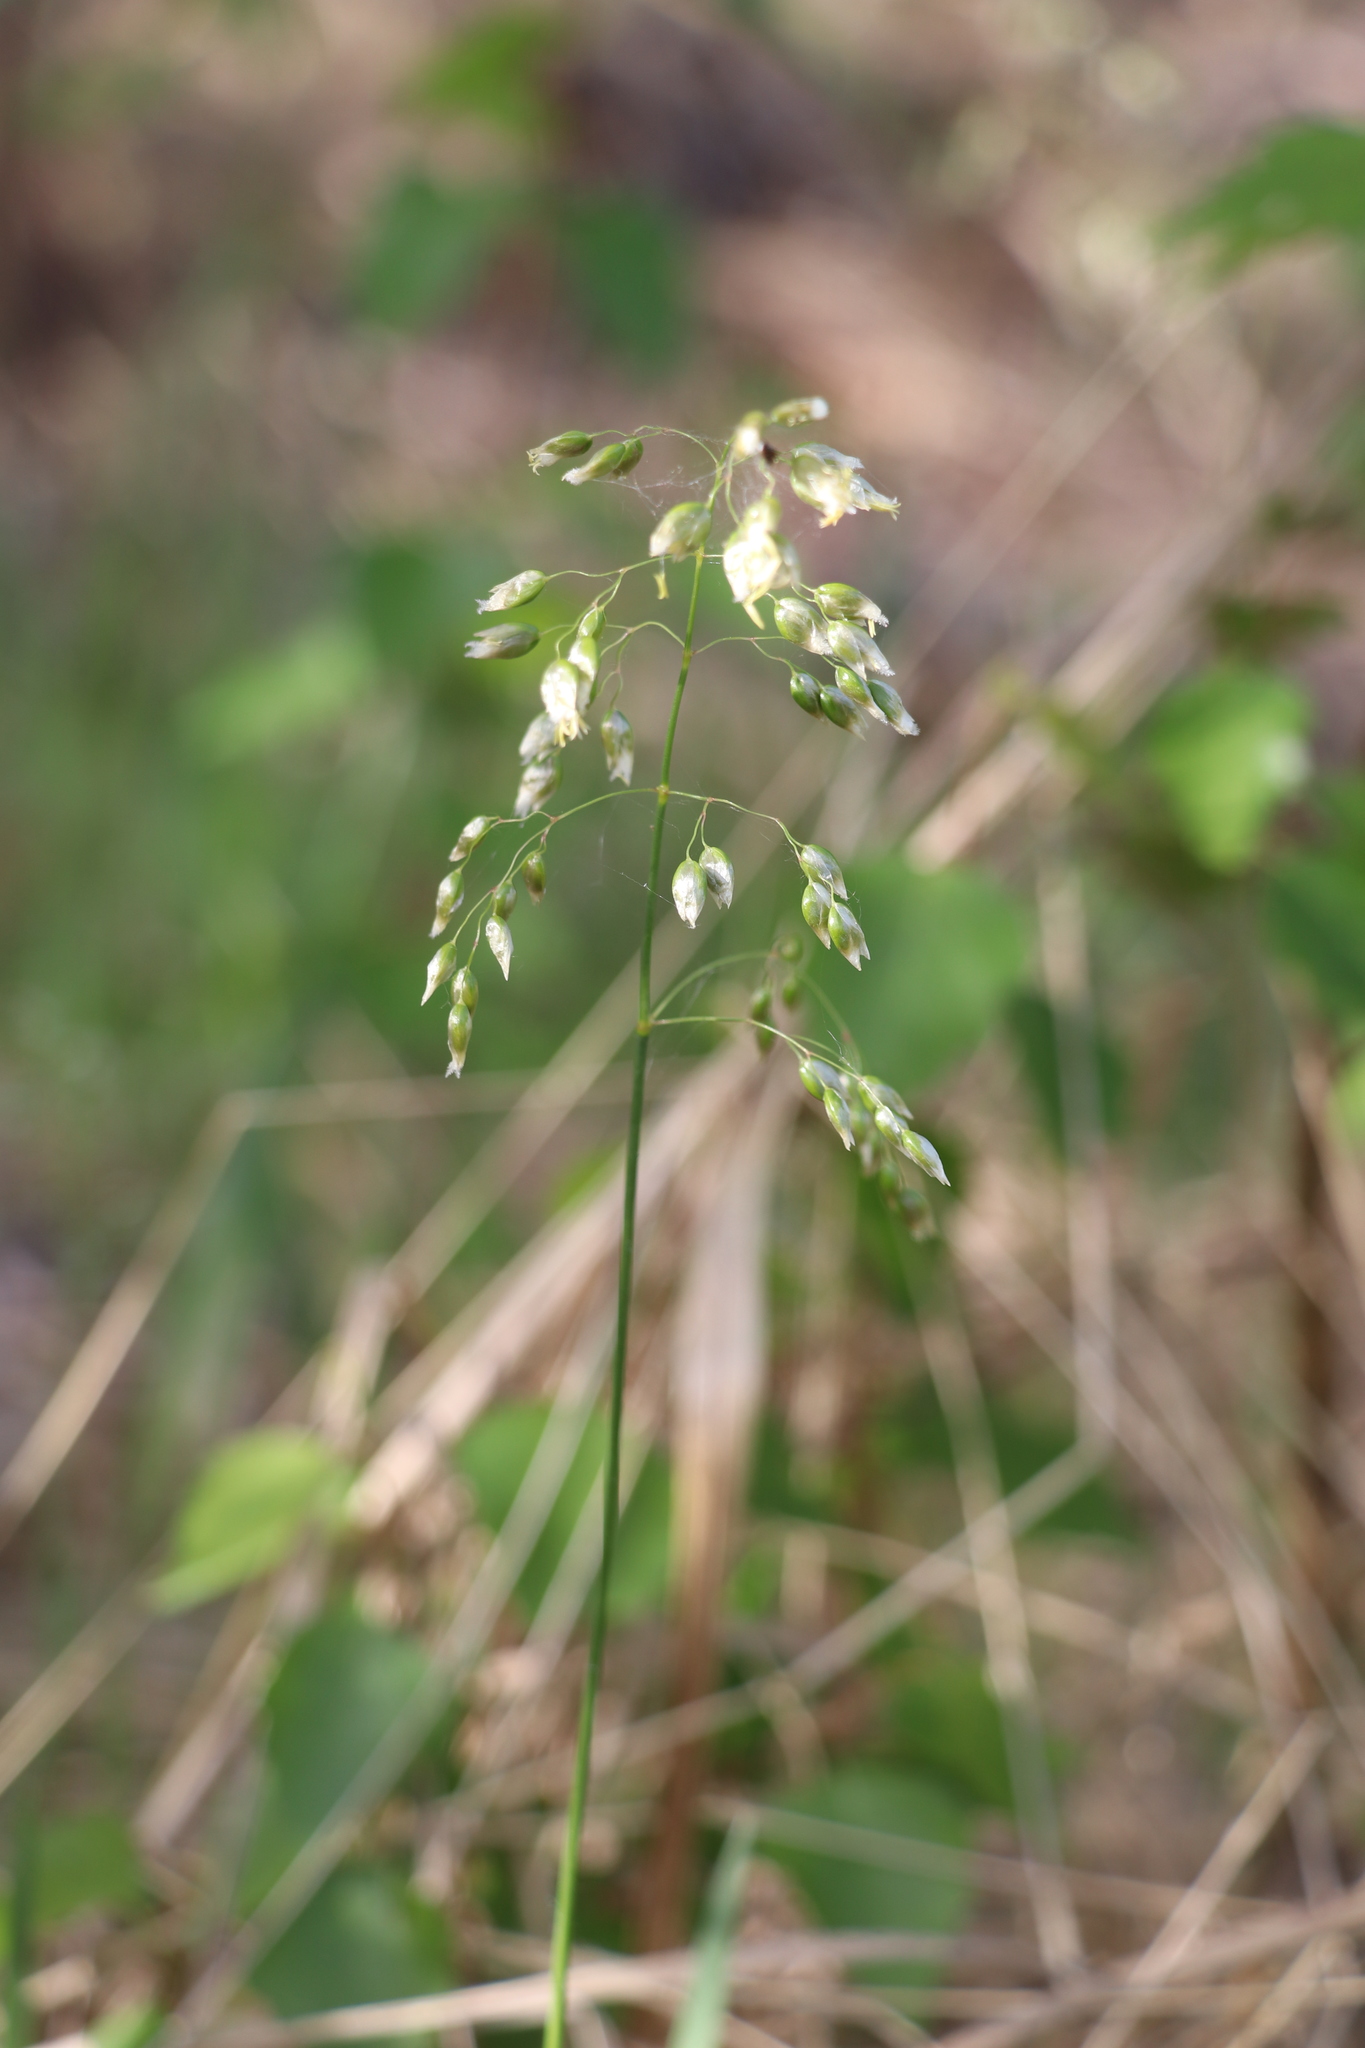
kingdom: Plantae
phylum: Tracheophyta
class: Liliopsida
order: Poales
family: Poaceae
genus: Anthoxanthum
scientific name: Anthoxanthum nitens
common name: Holy grass
